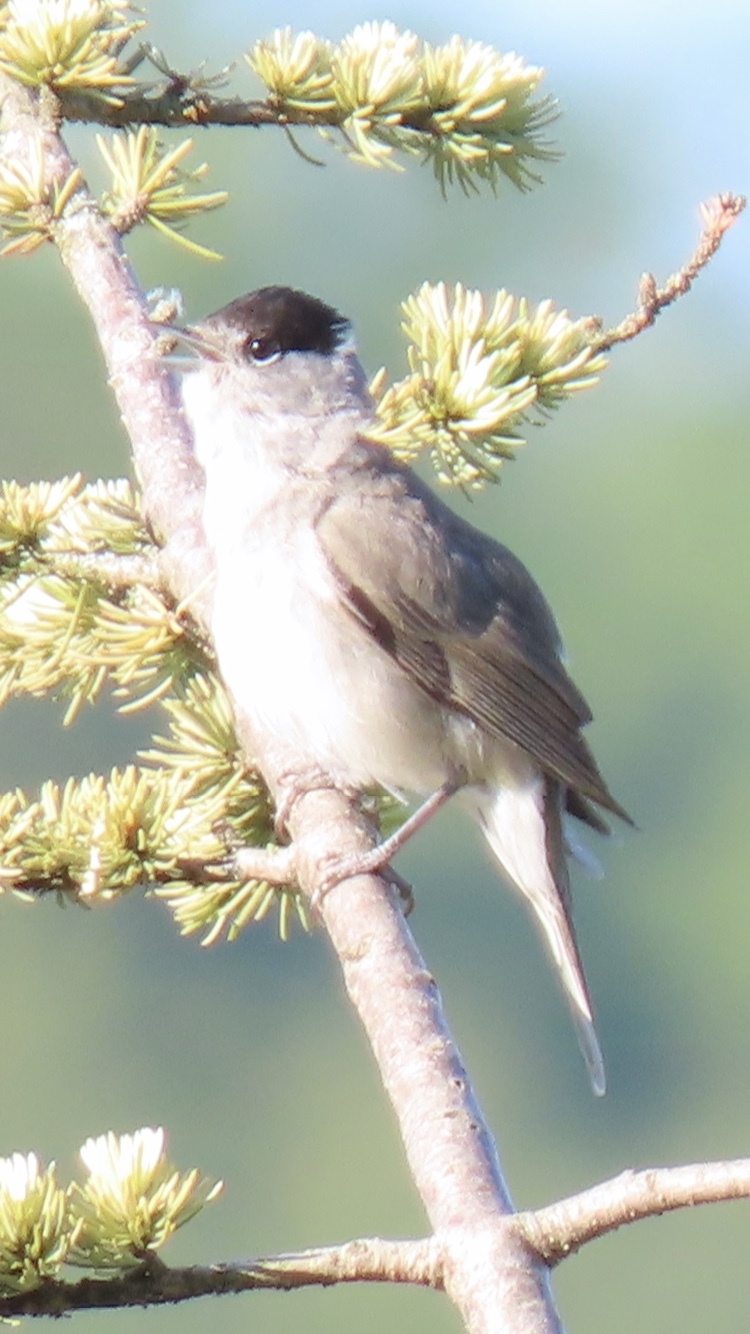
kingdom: Animalia
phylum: Chordata
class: Aves
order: Passeriformes
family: Sylviidae
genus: Sylvia
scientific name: Sylvia atricapilla
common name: Eurasian blackcap
